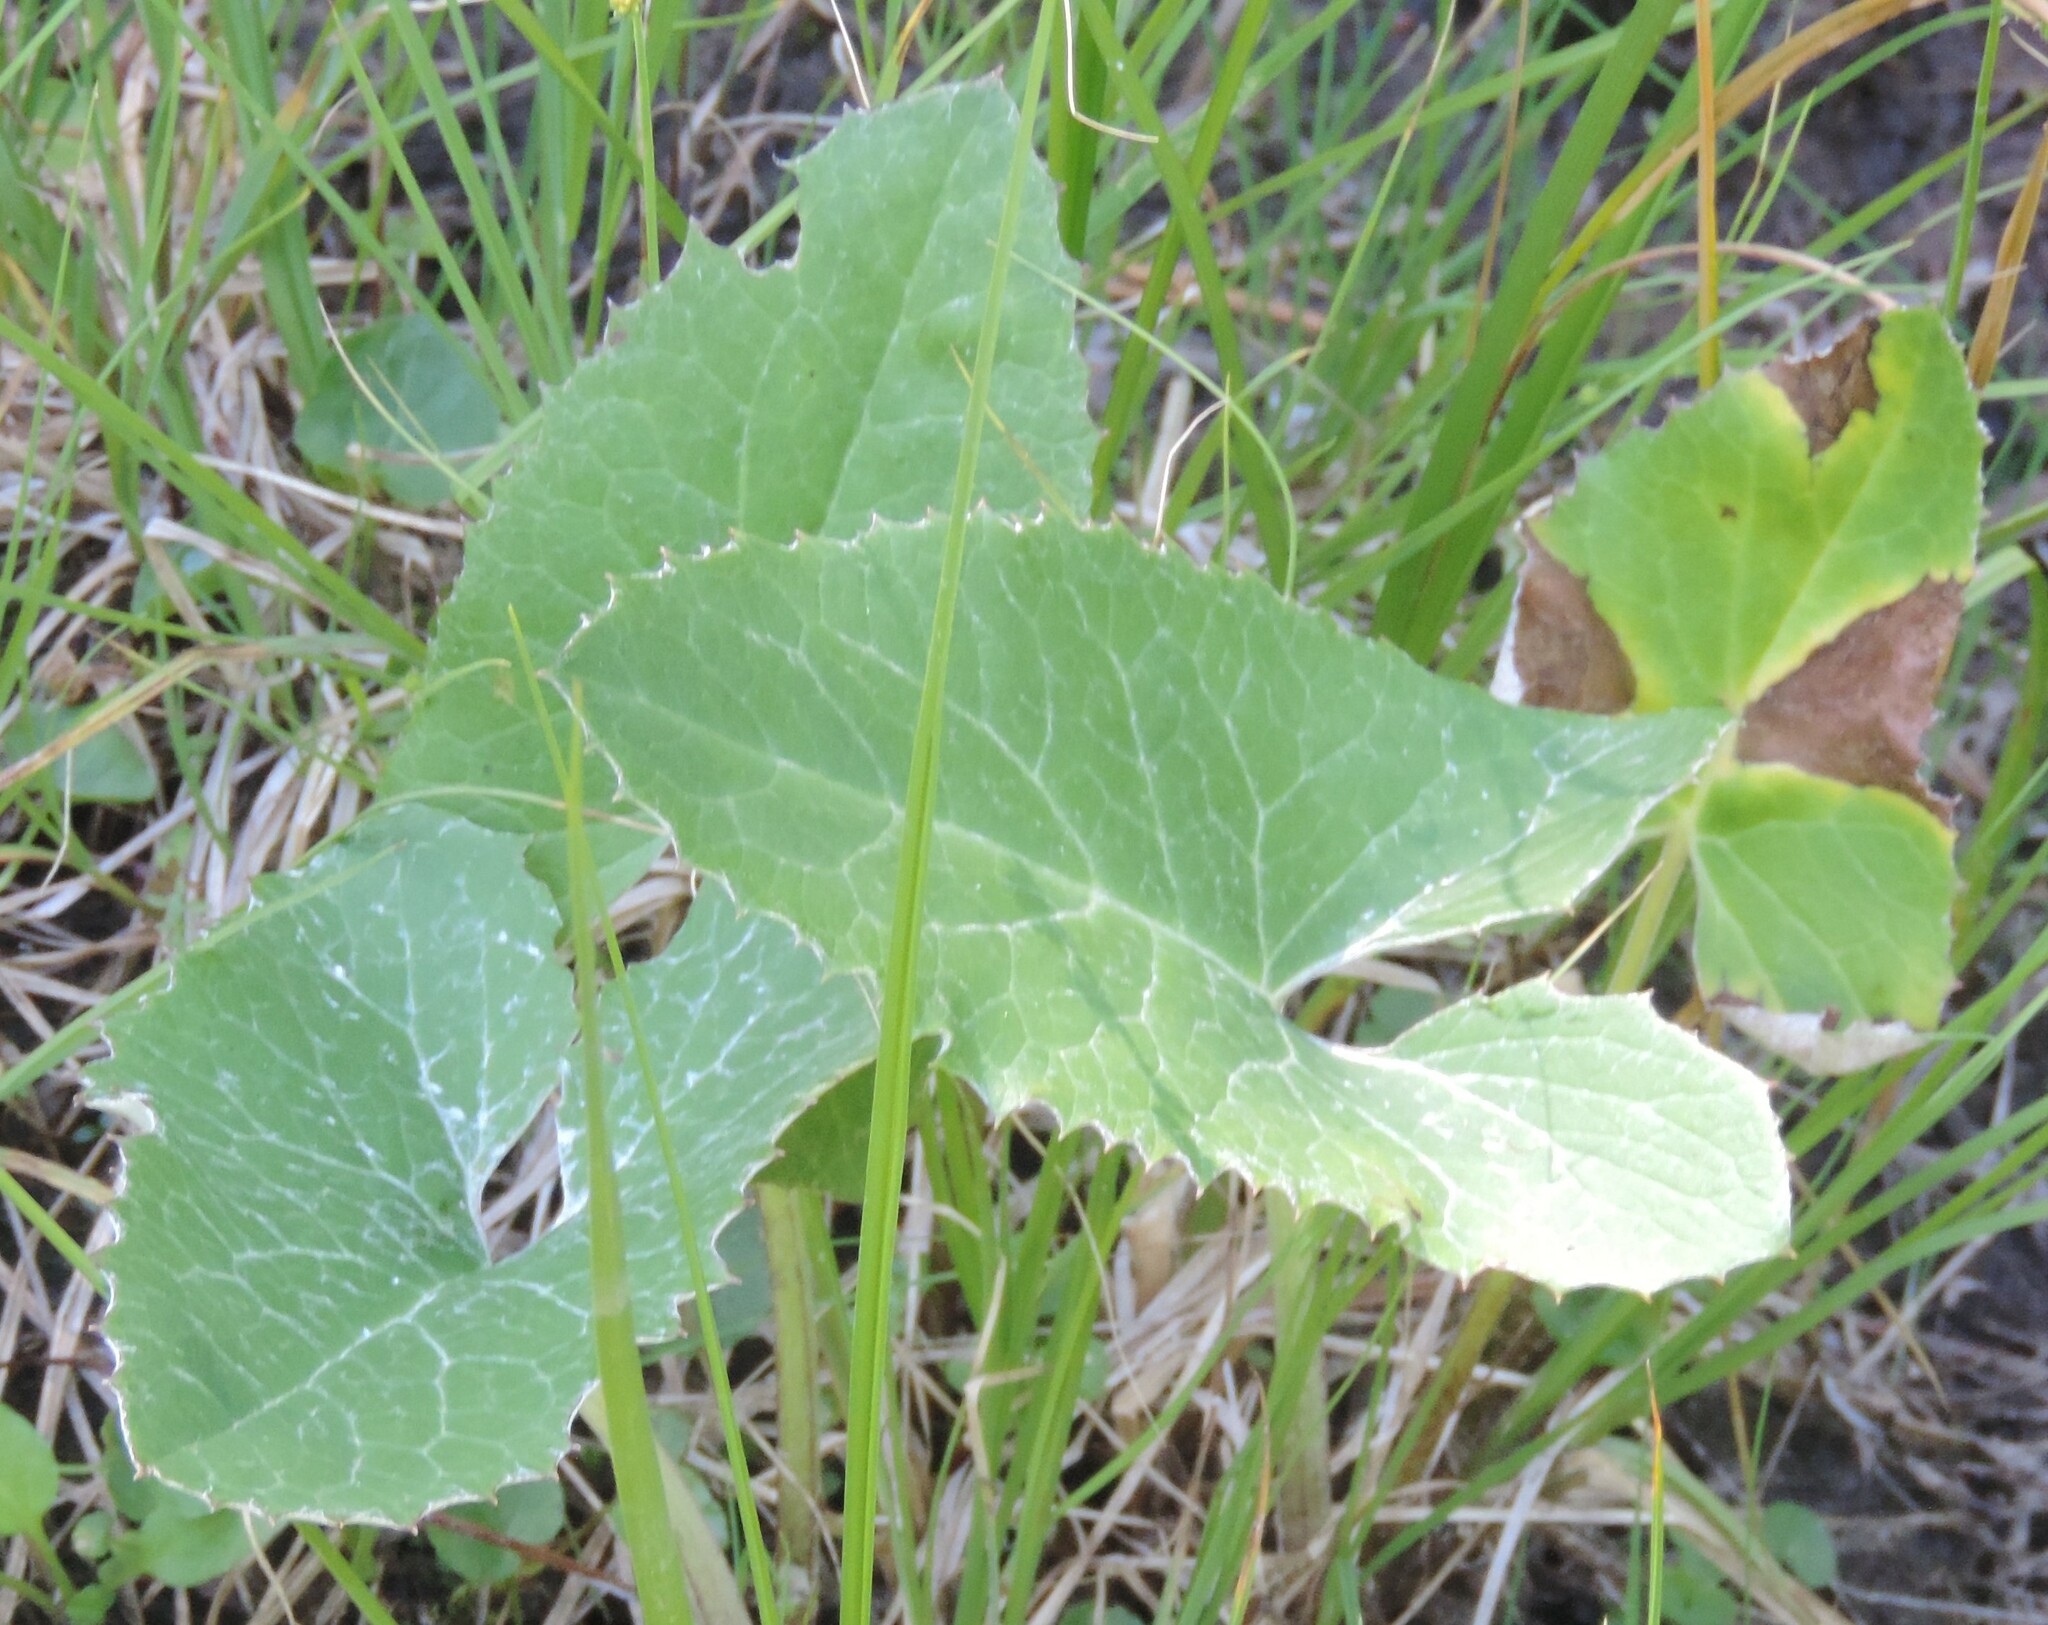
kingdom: Plantae
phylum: Tracheophyta
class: Magnoliopsida
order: Asterales
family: Asteraceae
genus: Petasites
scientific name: Petasites frigidus
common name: Arctic butterbur
